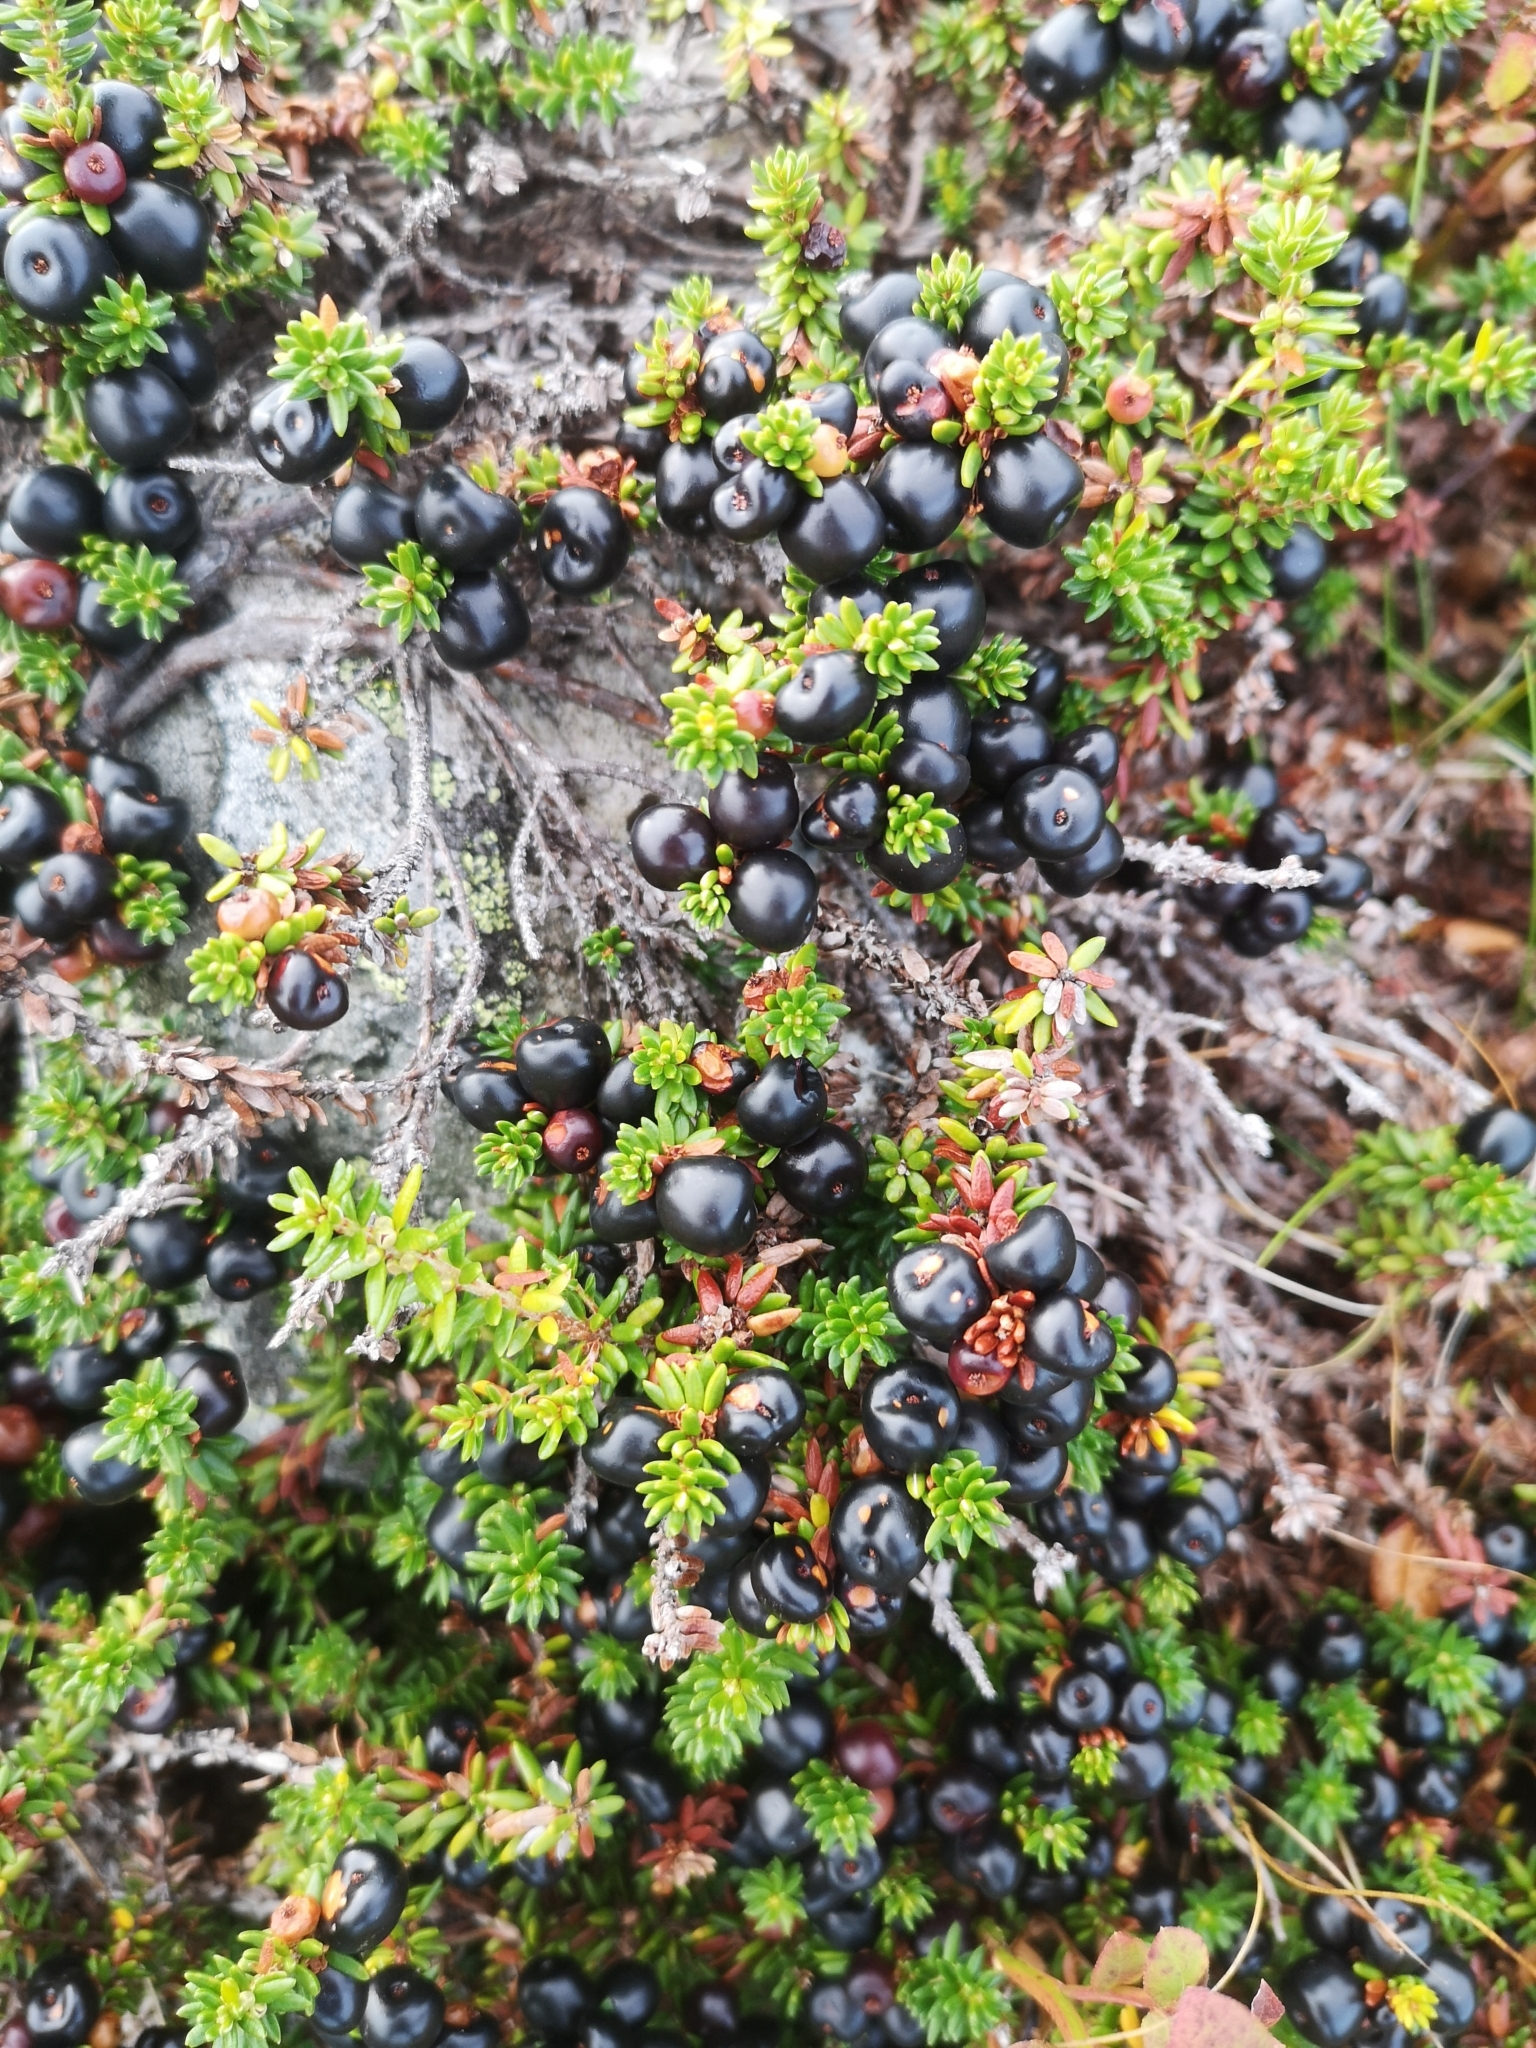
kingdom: Plantae
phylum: Tracheophyta
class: Magnoliopsida
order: Ericales
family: Ericaceae
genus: Empetrum
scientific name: Empetrum nigrum
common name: Black crowberry
